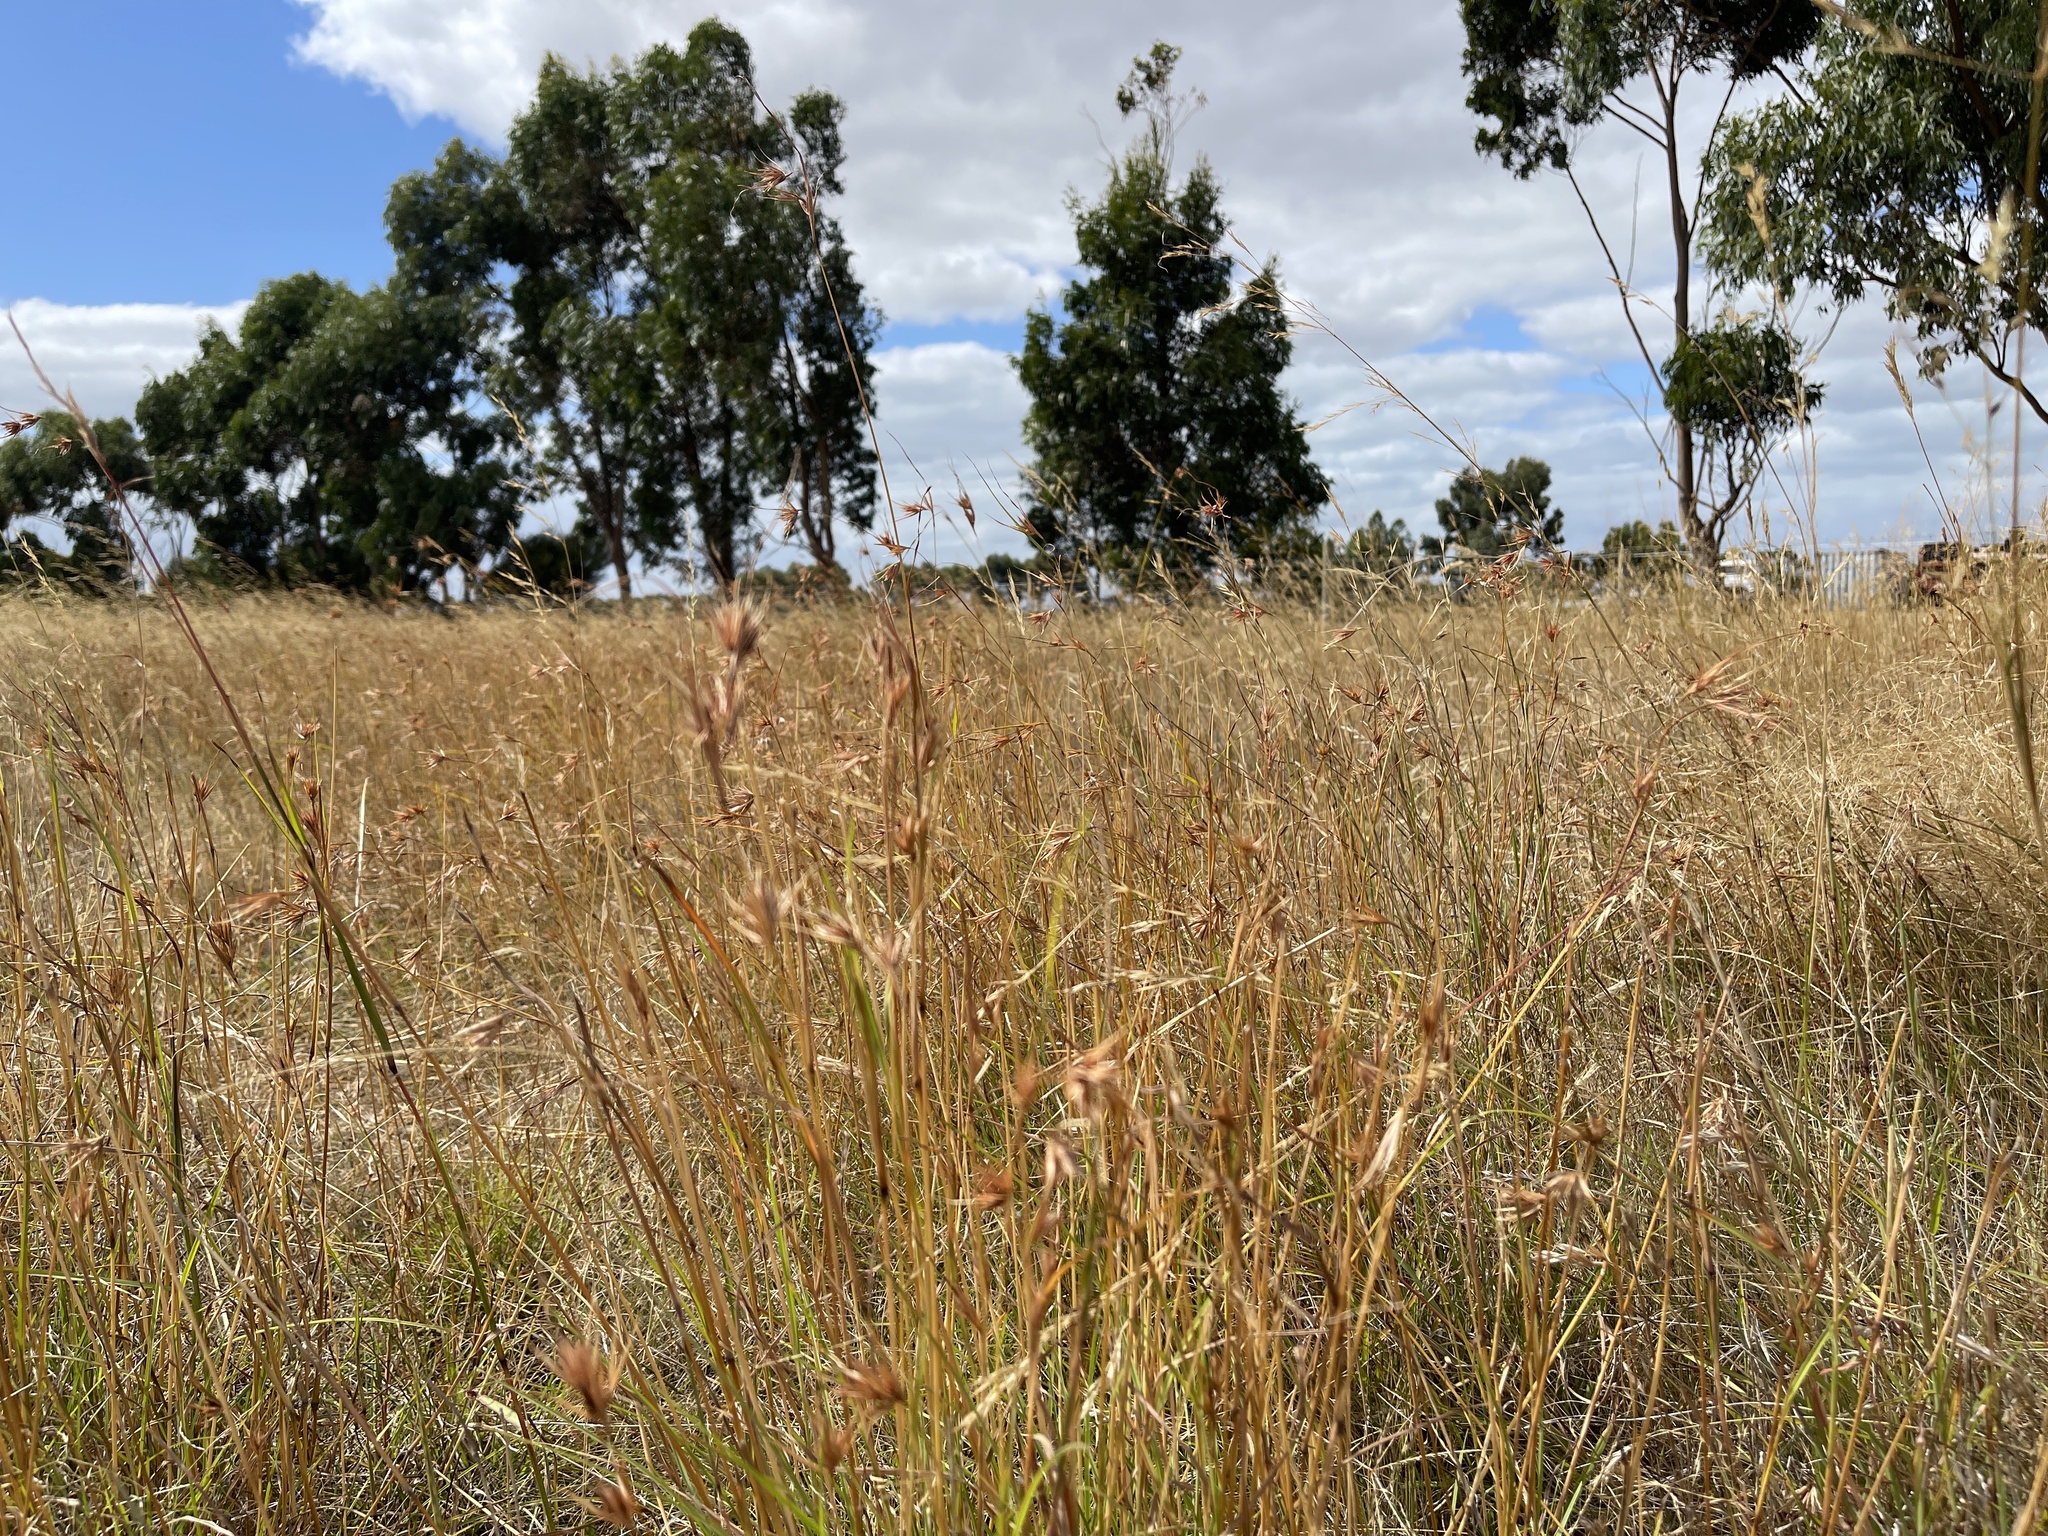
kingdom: Plantae
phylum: Tracheophyta
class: Liliopsida
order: Poales
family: Poaceae
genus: Themeda
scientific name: Themeda triandra
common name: Kangaroo grass
